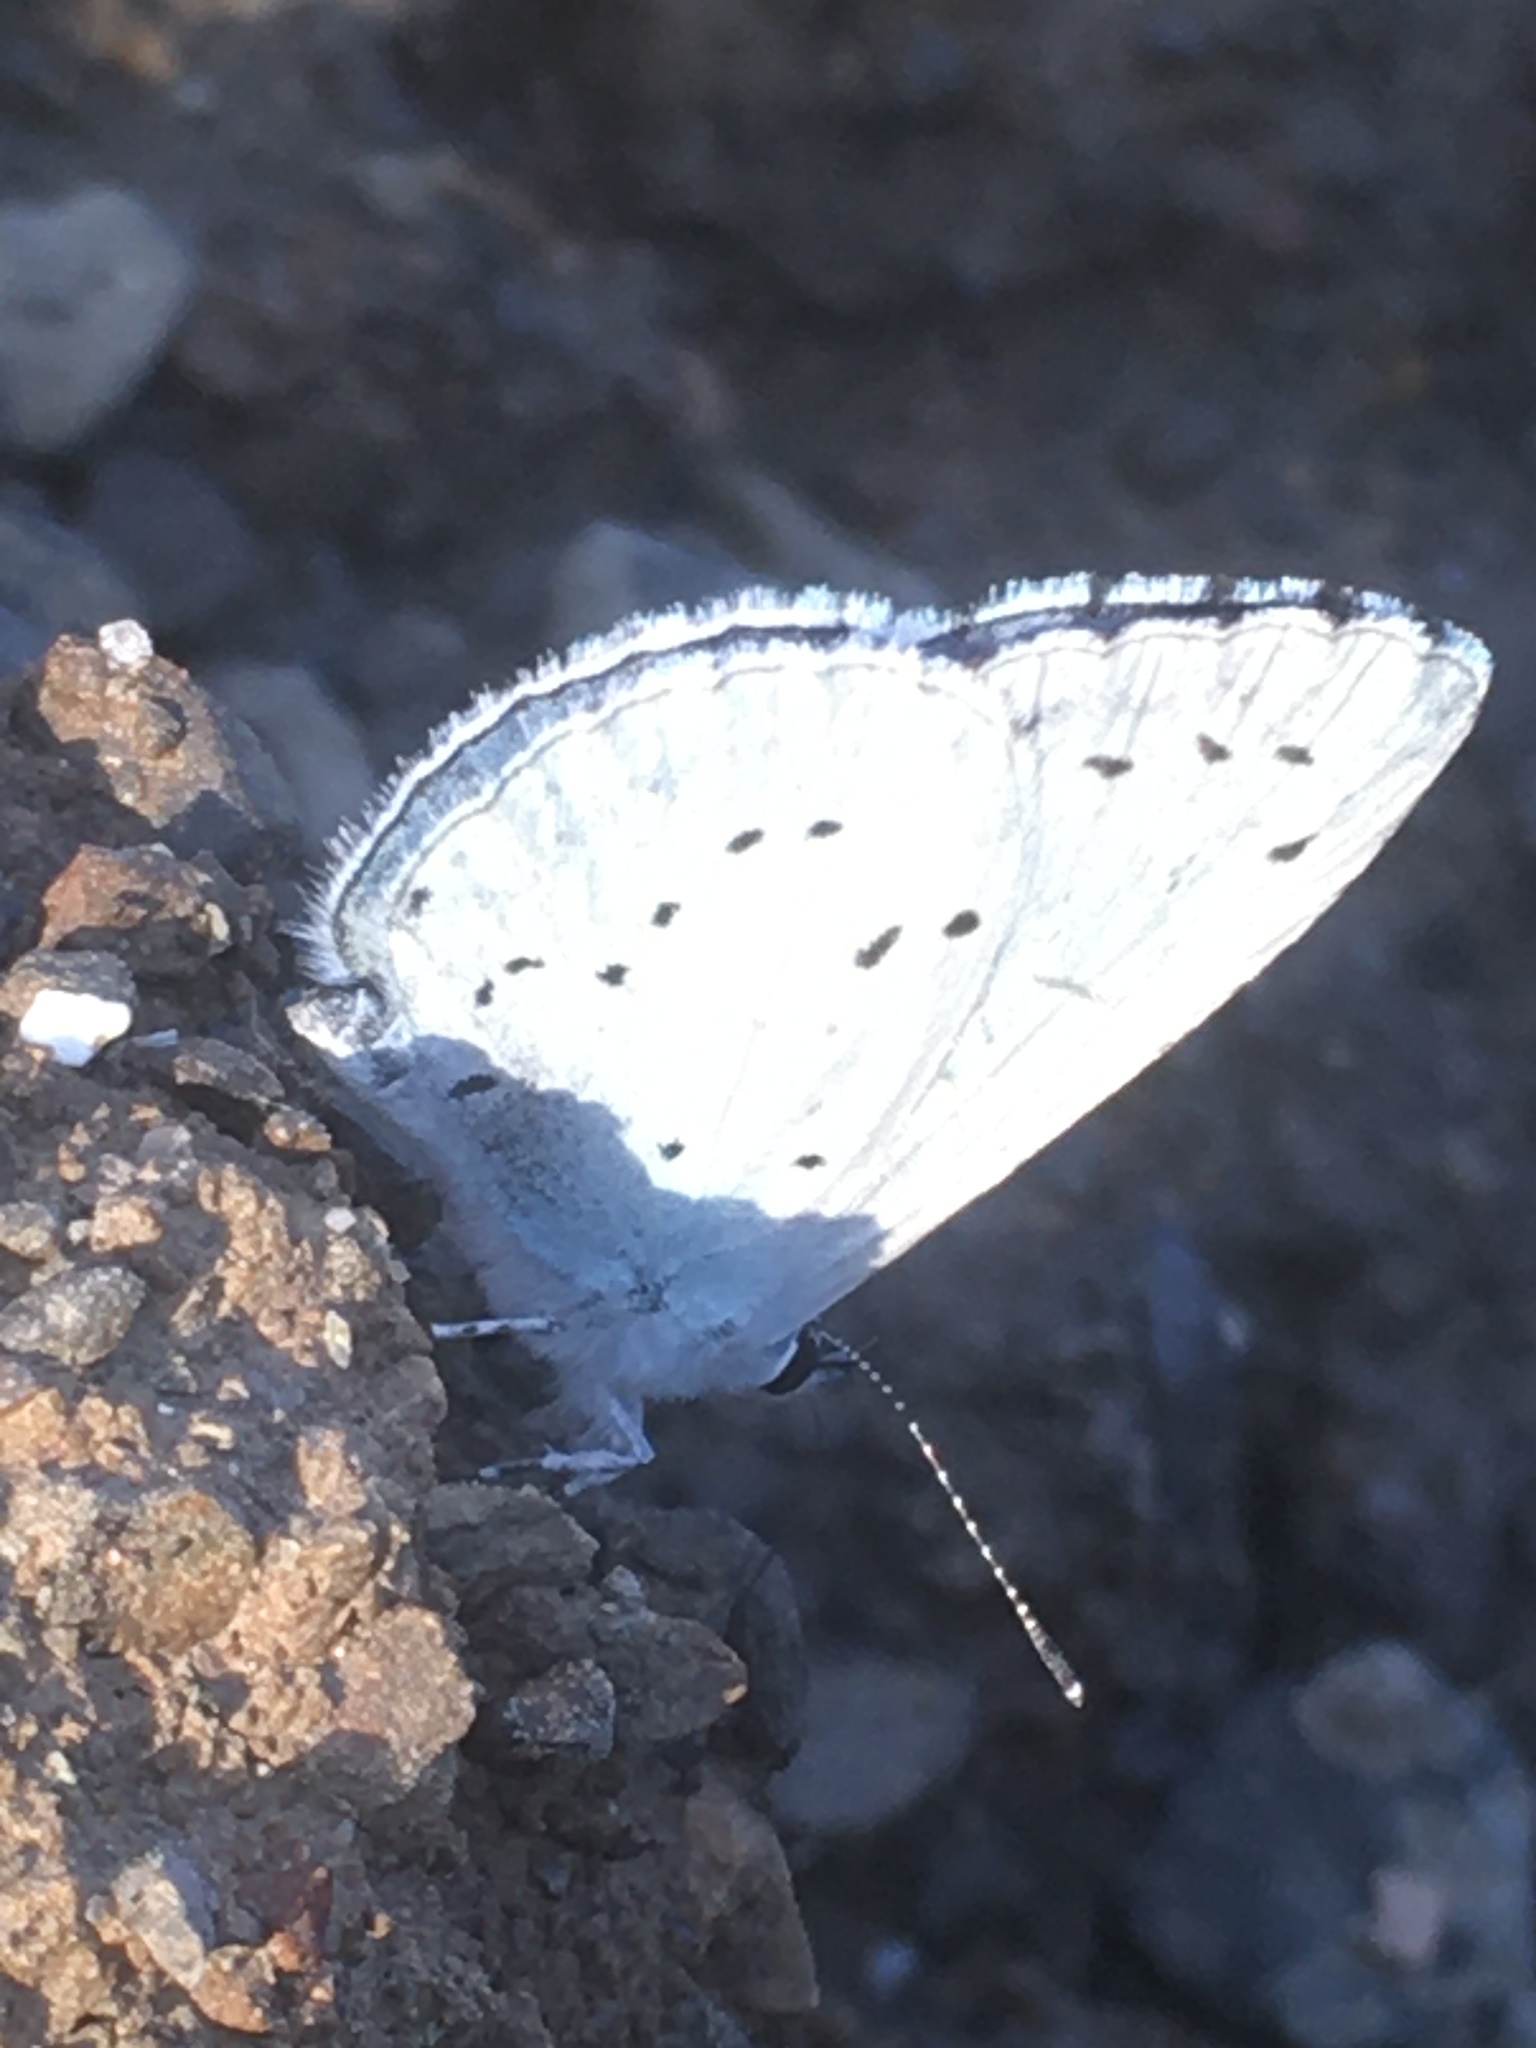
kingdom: Animalia
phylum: Arthropoda
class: Insecta
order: Lepidoptera
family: Lycaenidae
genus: Celastrina
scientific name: Celastrina argiolus
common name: Holly blue
